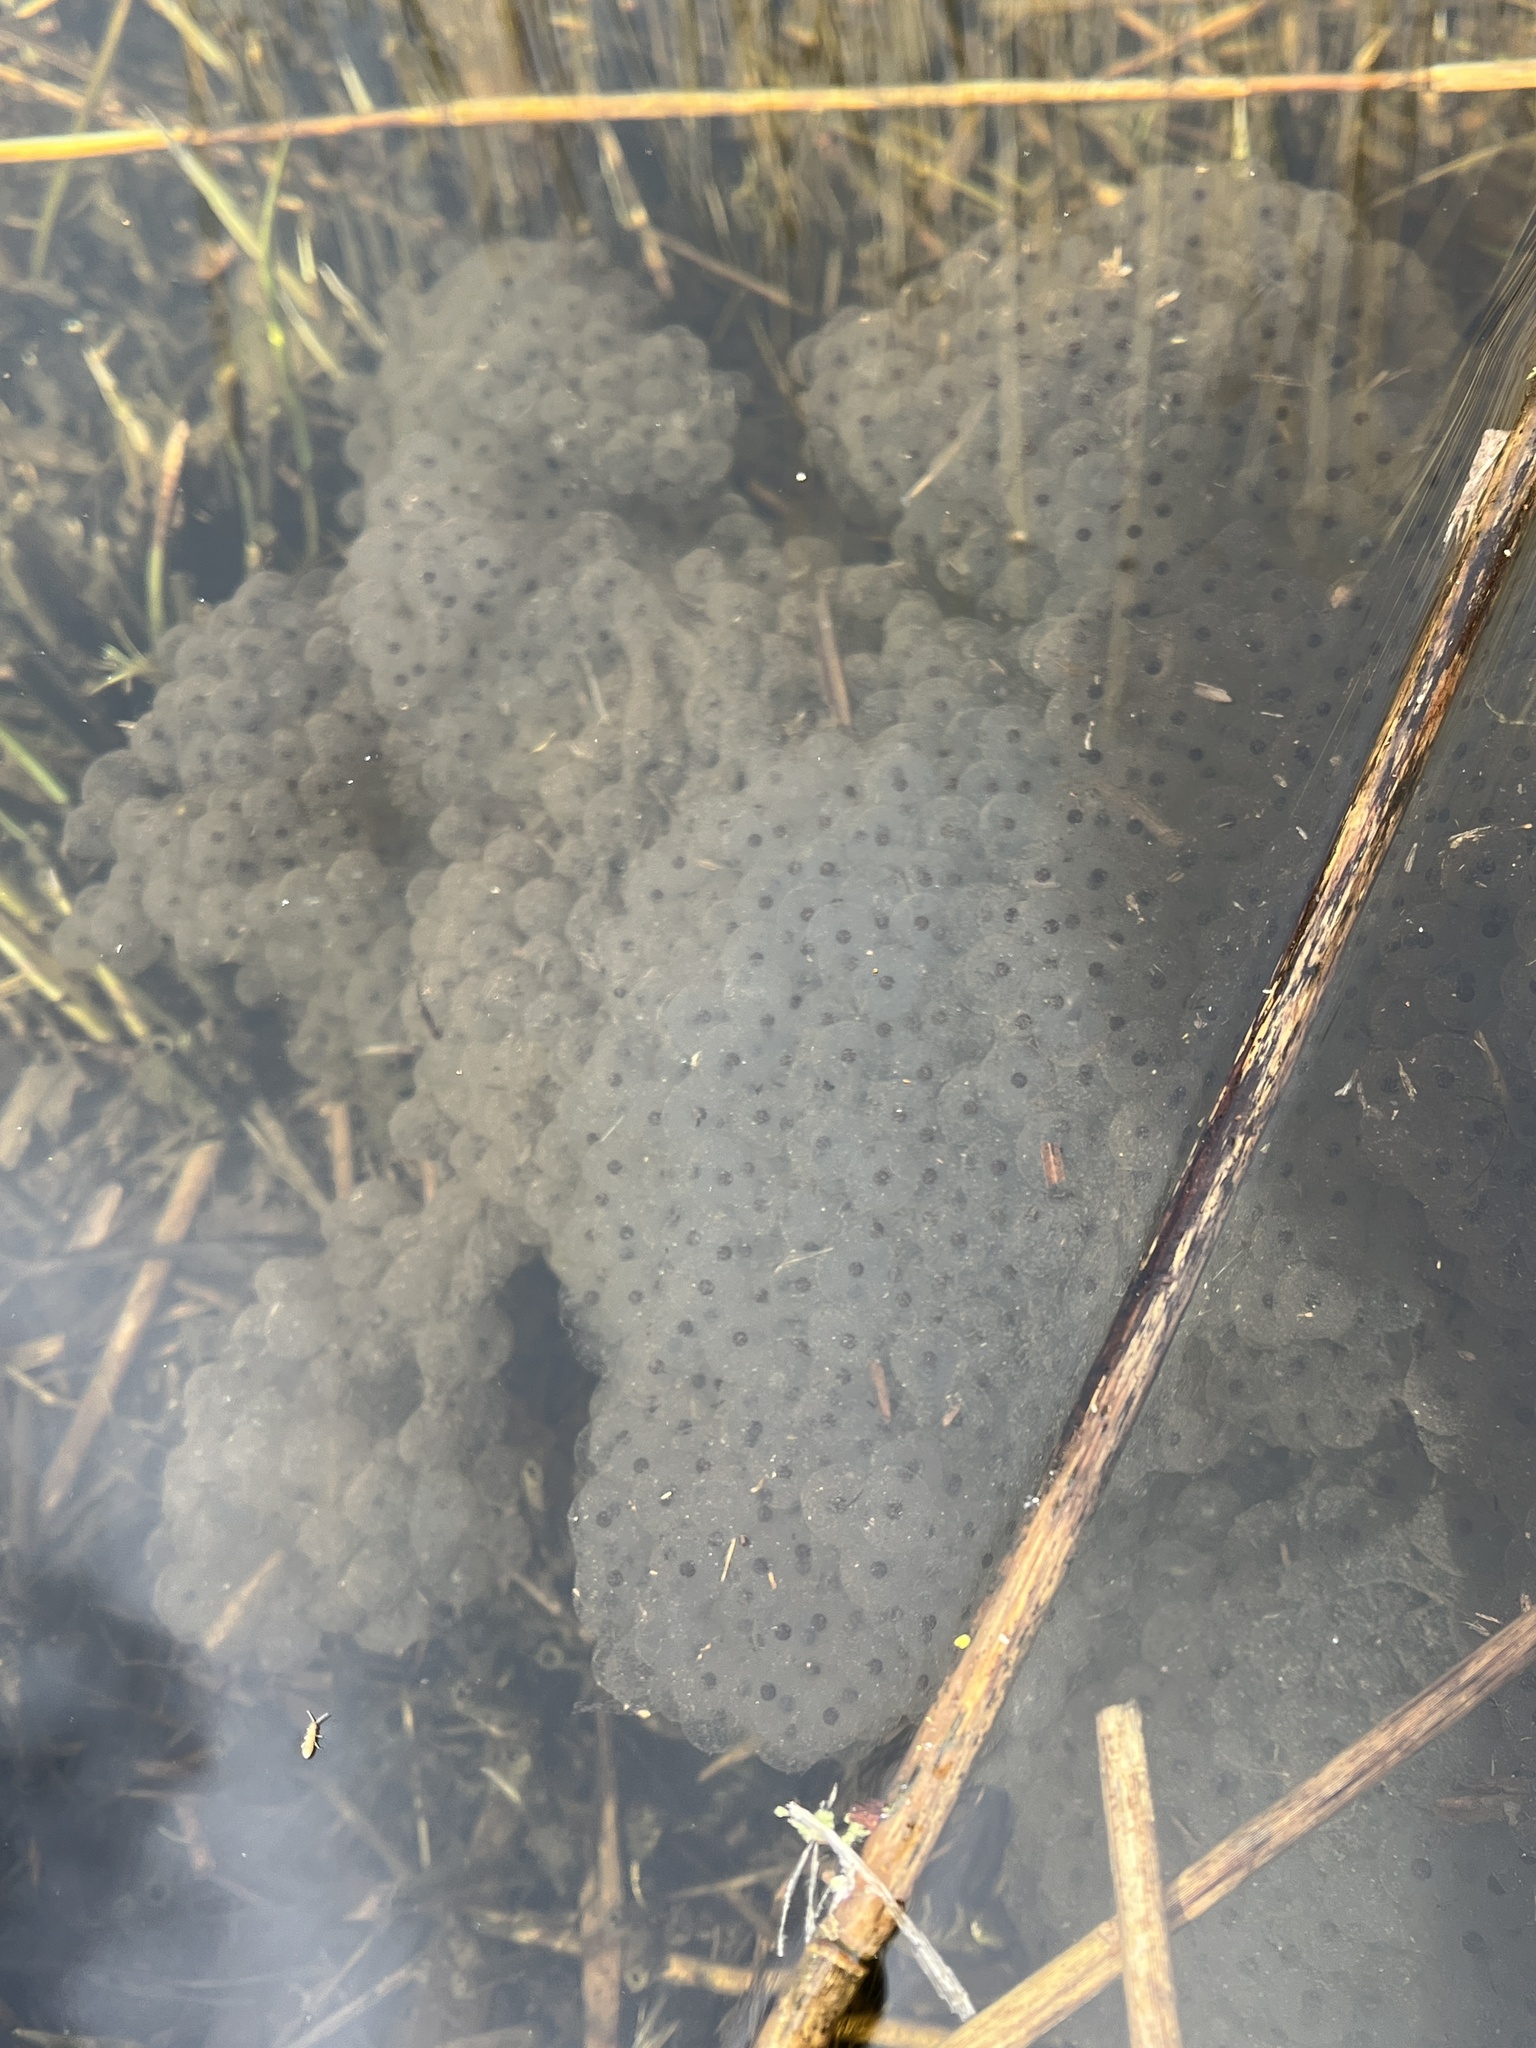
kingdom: Animalia
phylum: Chordata
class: Amphibia
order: Anura
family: Ranidae
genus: Rana
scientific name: Rana temporaria
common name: Common frog
